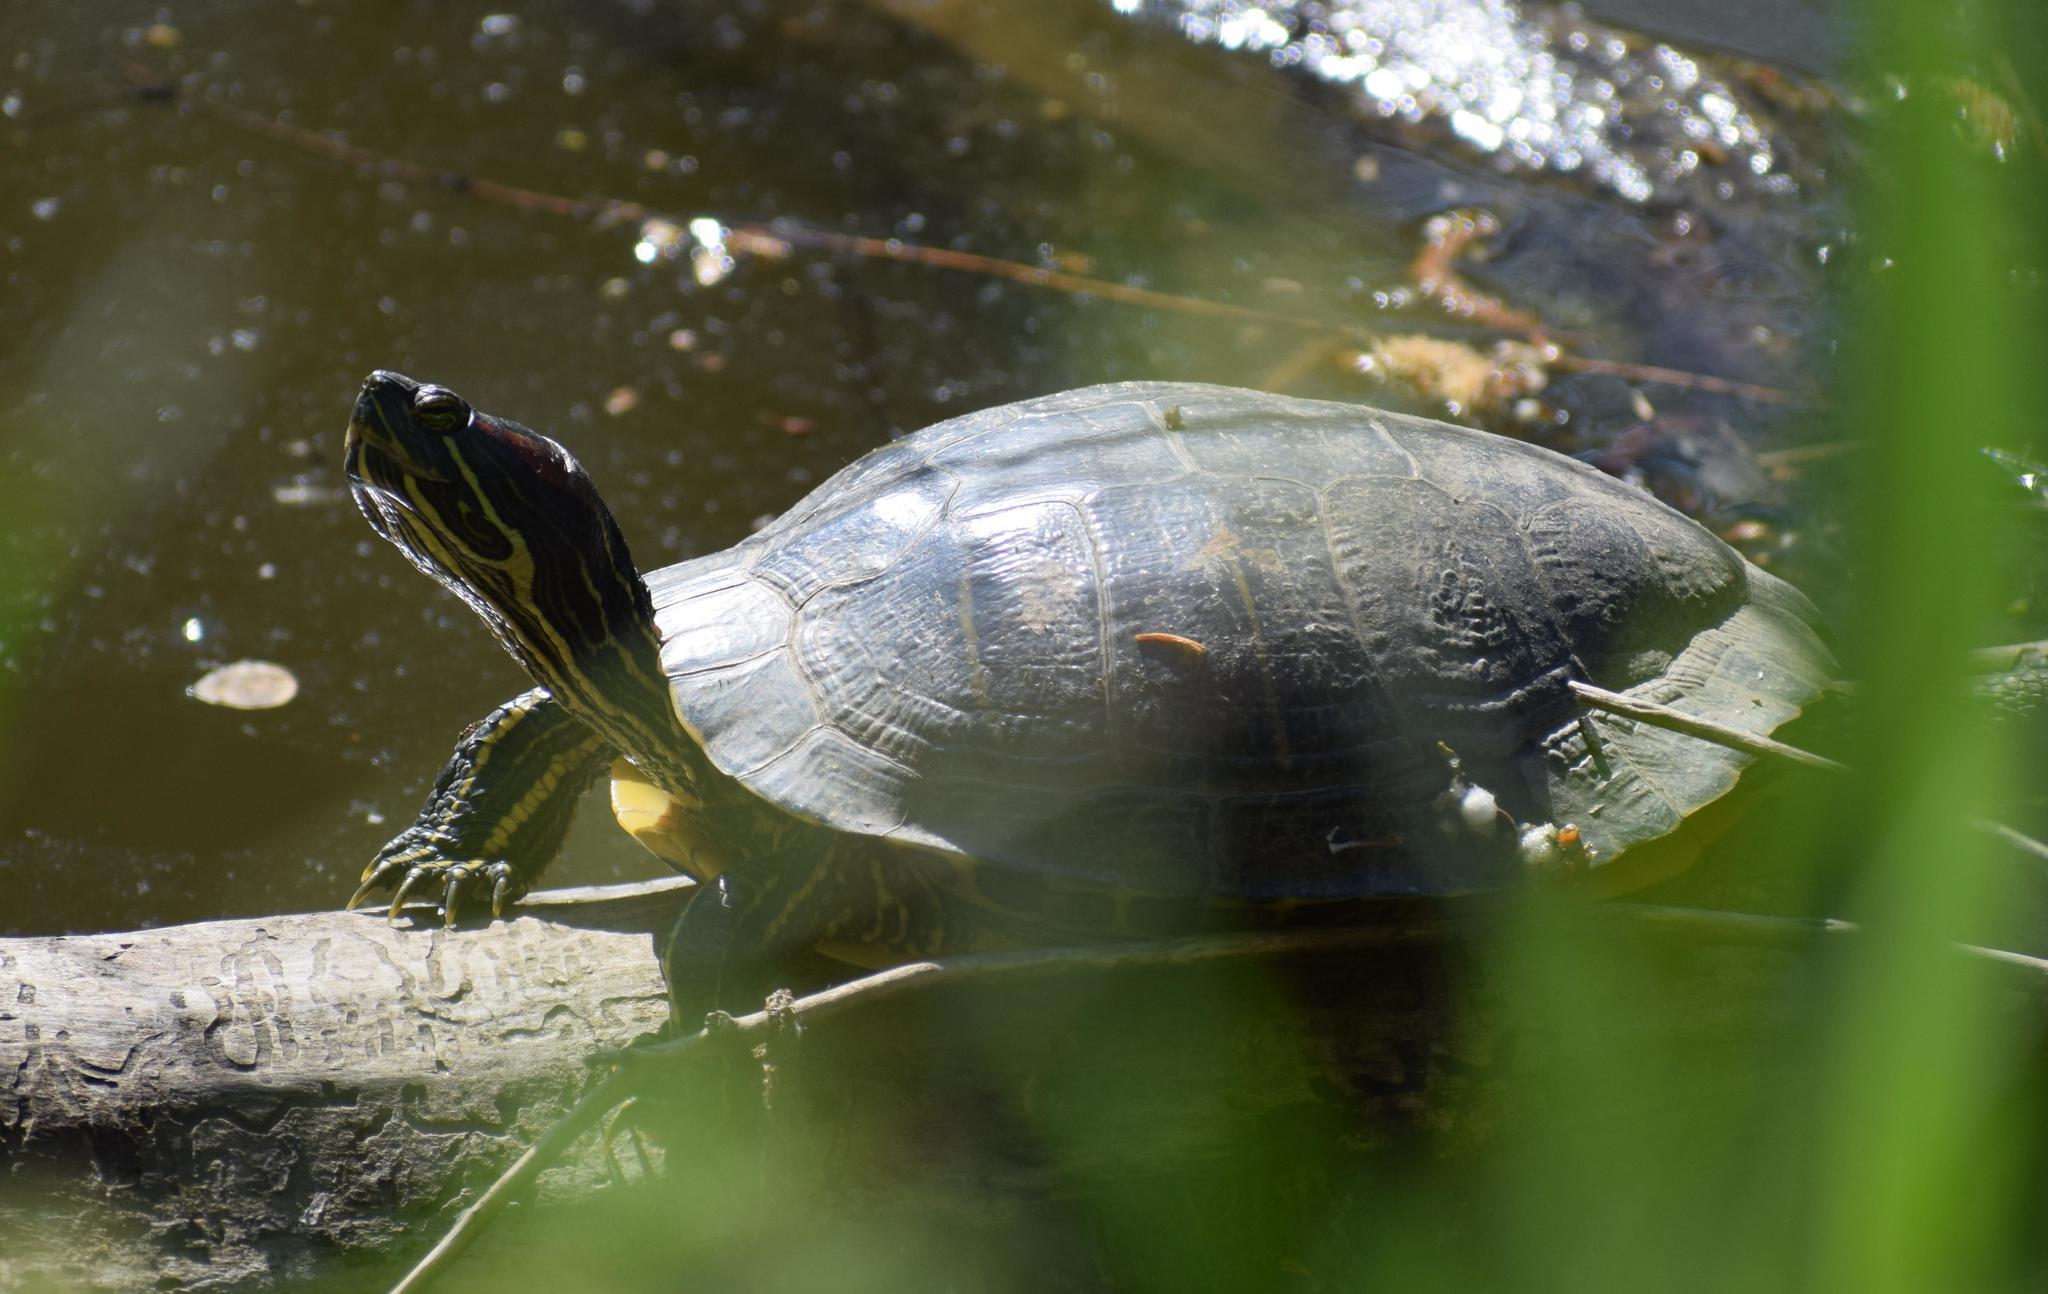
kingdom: Animalia
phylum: Chordata
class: Testudines
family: Emydidae
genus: Trachemys
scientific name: Trachemys scripta
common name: Slider
